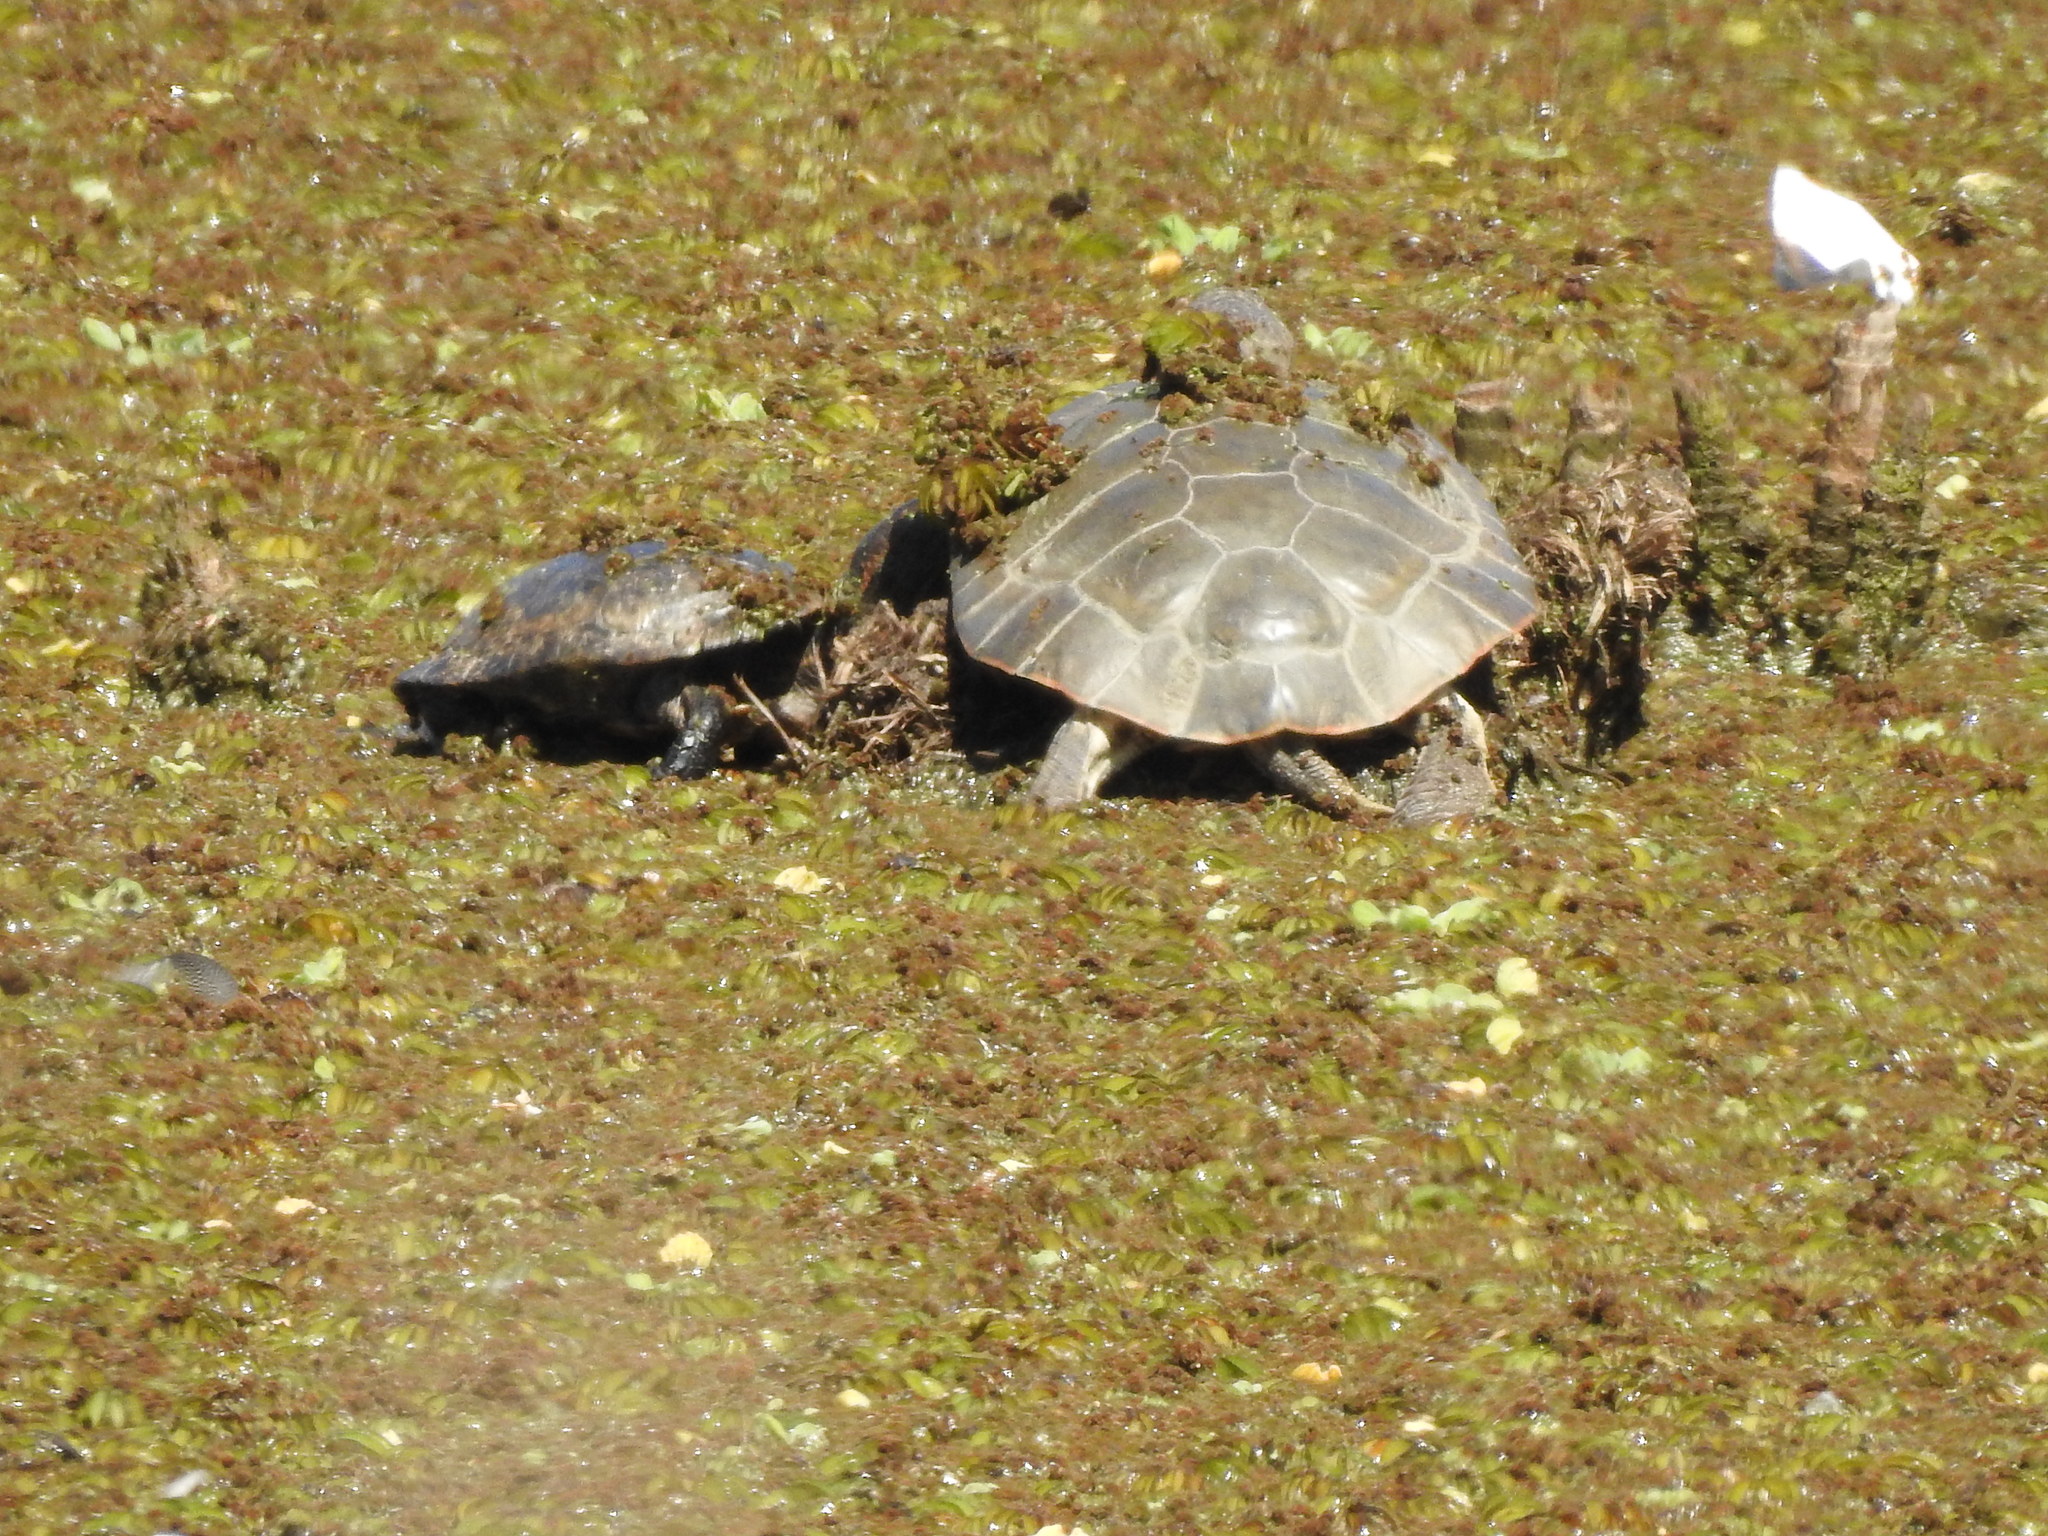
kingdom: Animalia
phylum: Chordata
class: Testudines
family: Chelidae
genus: Phrynops
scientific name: Phrynops hilarii
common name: Side-necked turtle of saint hillaire
